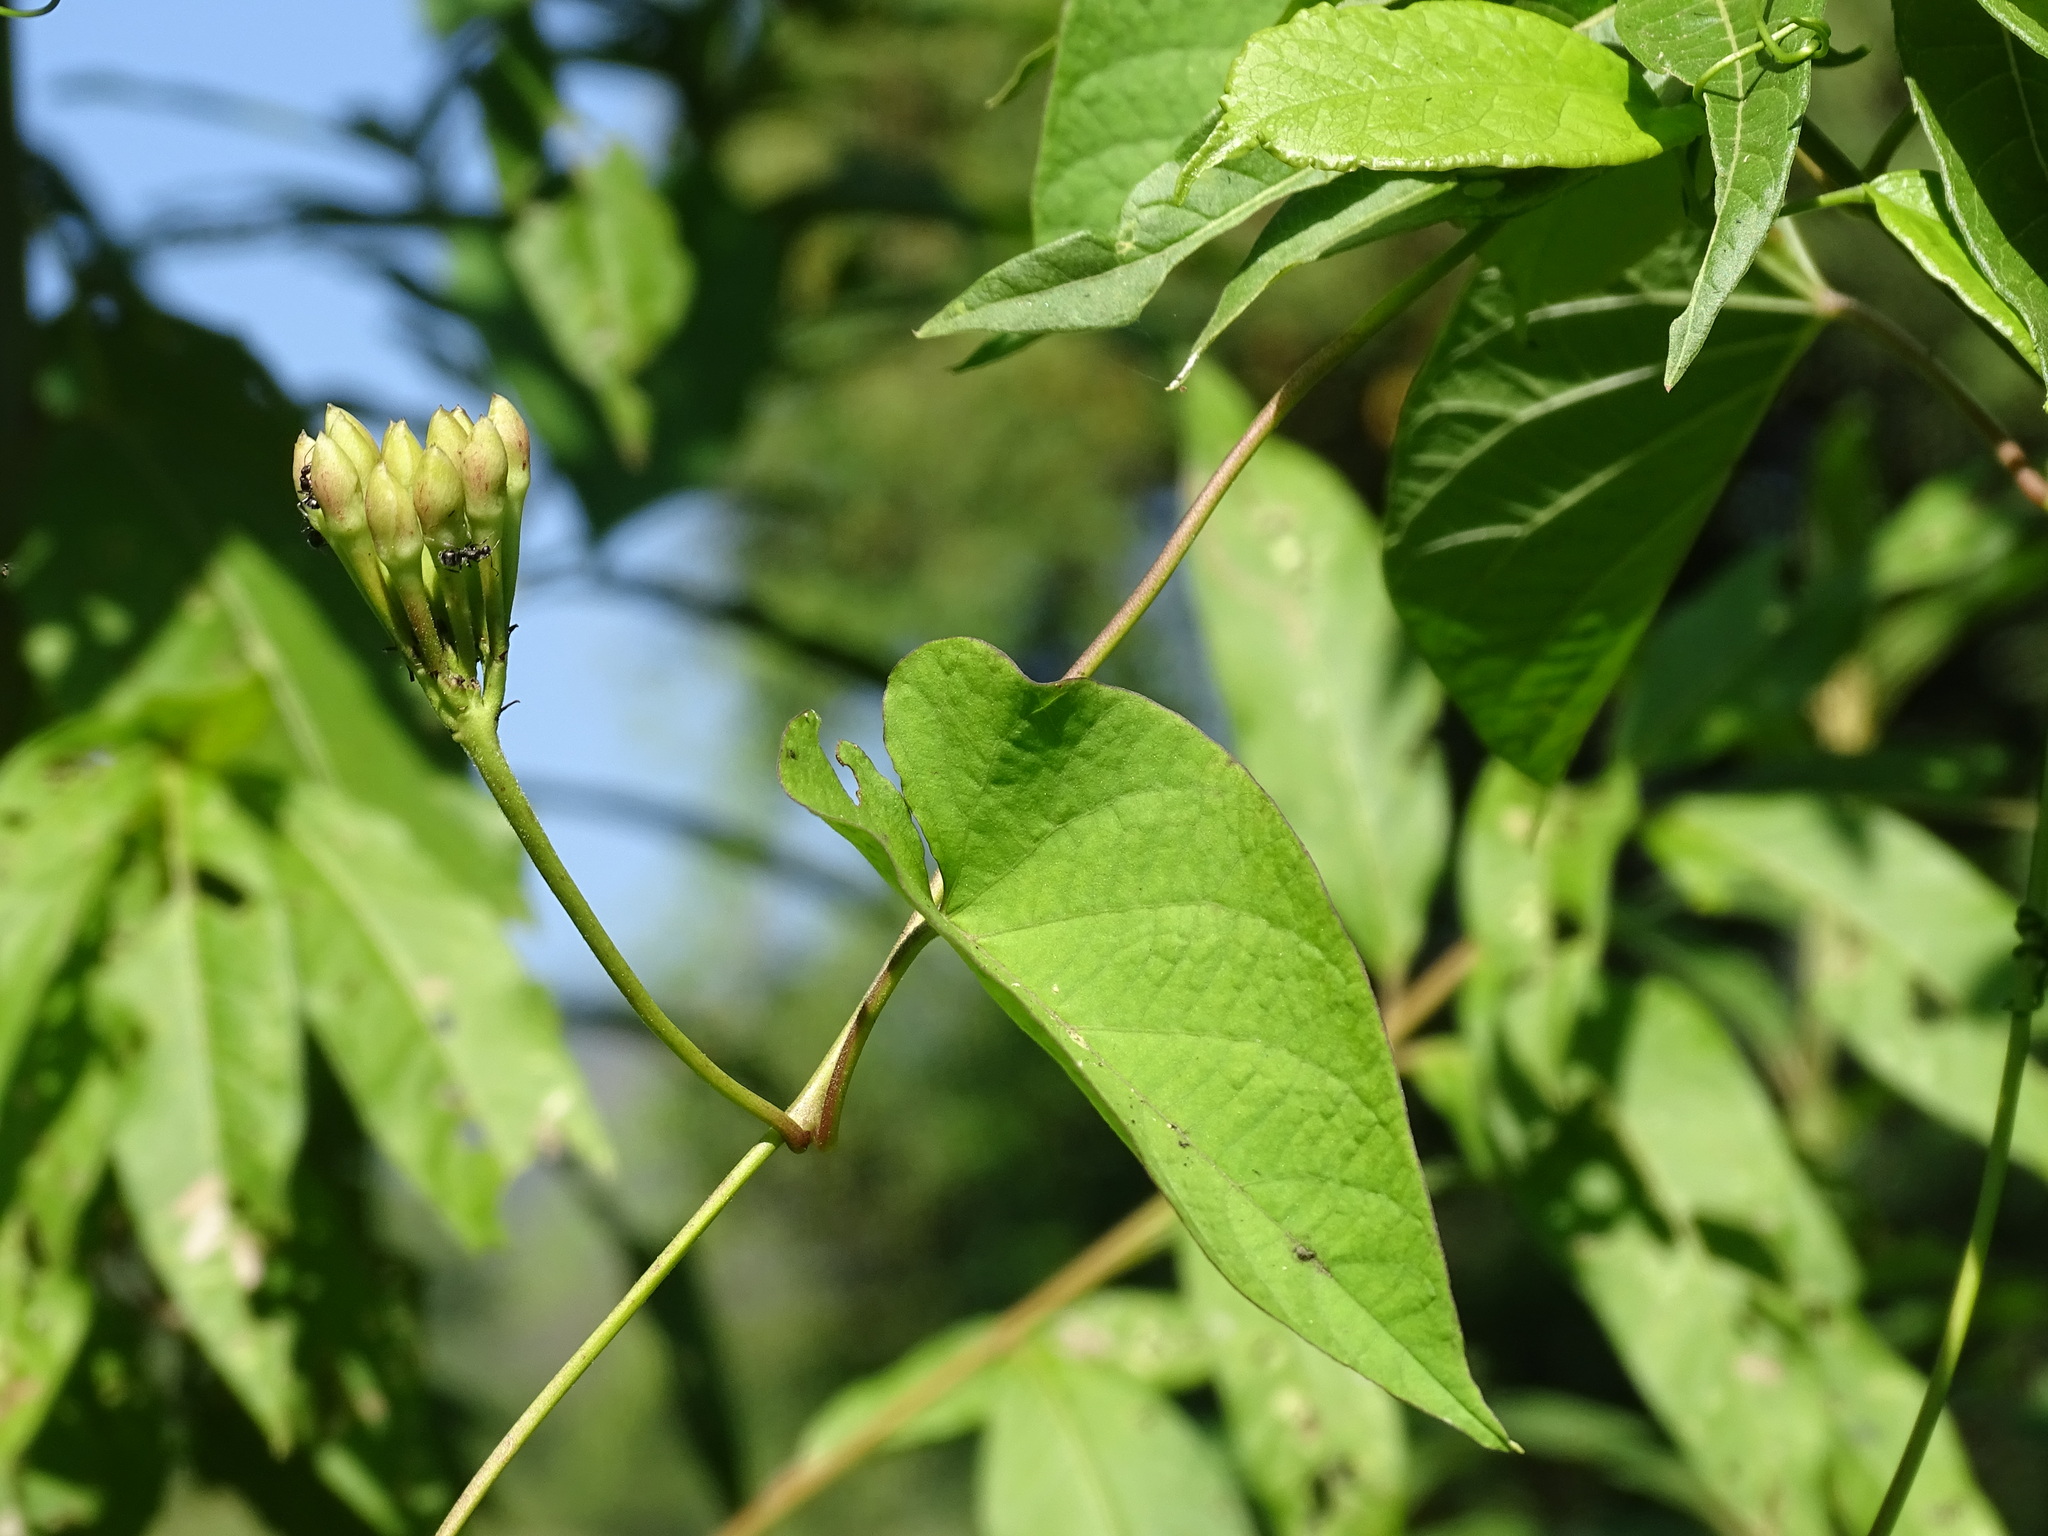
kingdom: Plantae
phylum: Tracheophyta
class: Magnoliopsida
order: Solanales
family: Convolvulaceae
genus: Camonea
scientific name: Camonea umbellata
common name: Hogvine
